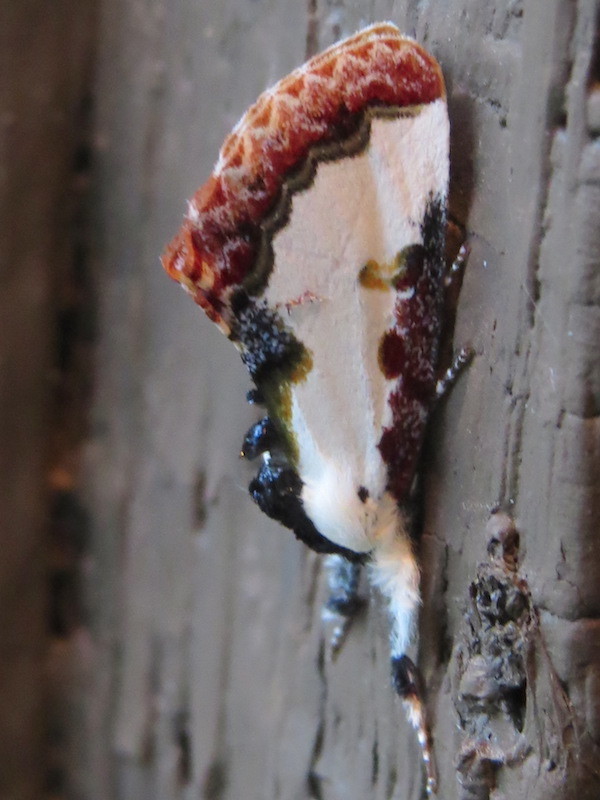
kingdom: Animalia
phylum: Arthropoda
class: Insecta
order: Lepidoptera
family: Noctuidae
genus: Eudryas
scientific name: Eudryas unio
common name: Pearly wood-nymph
